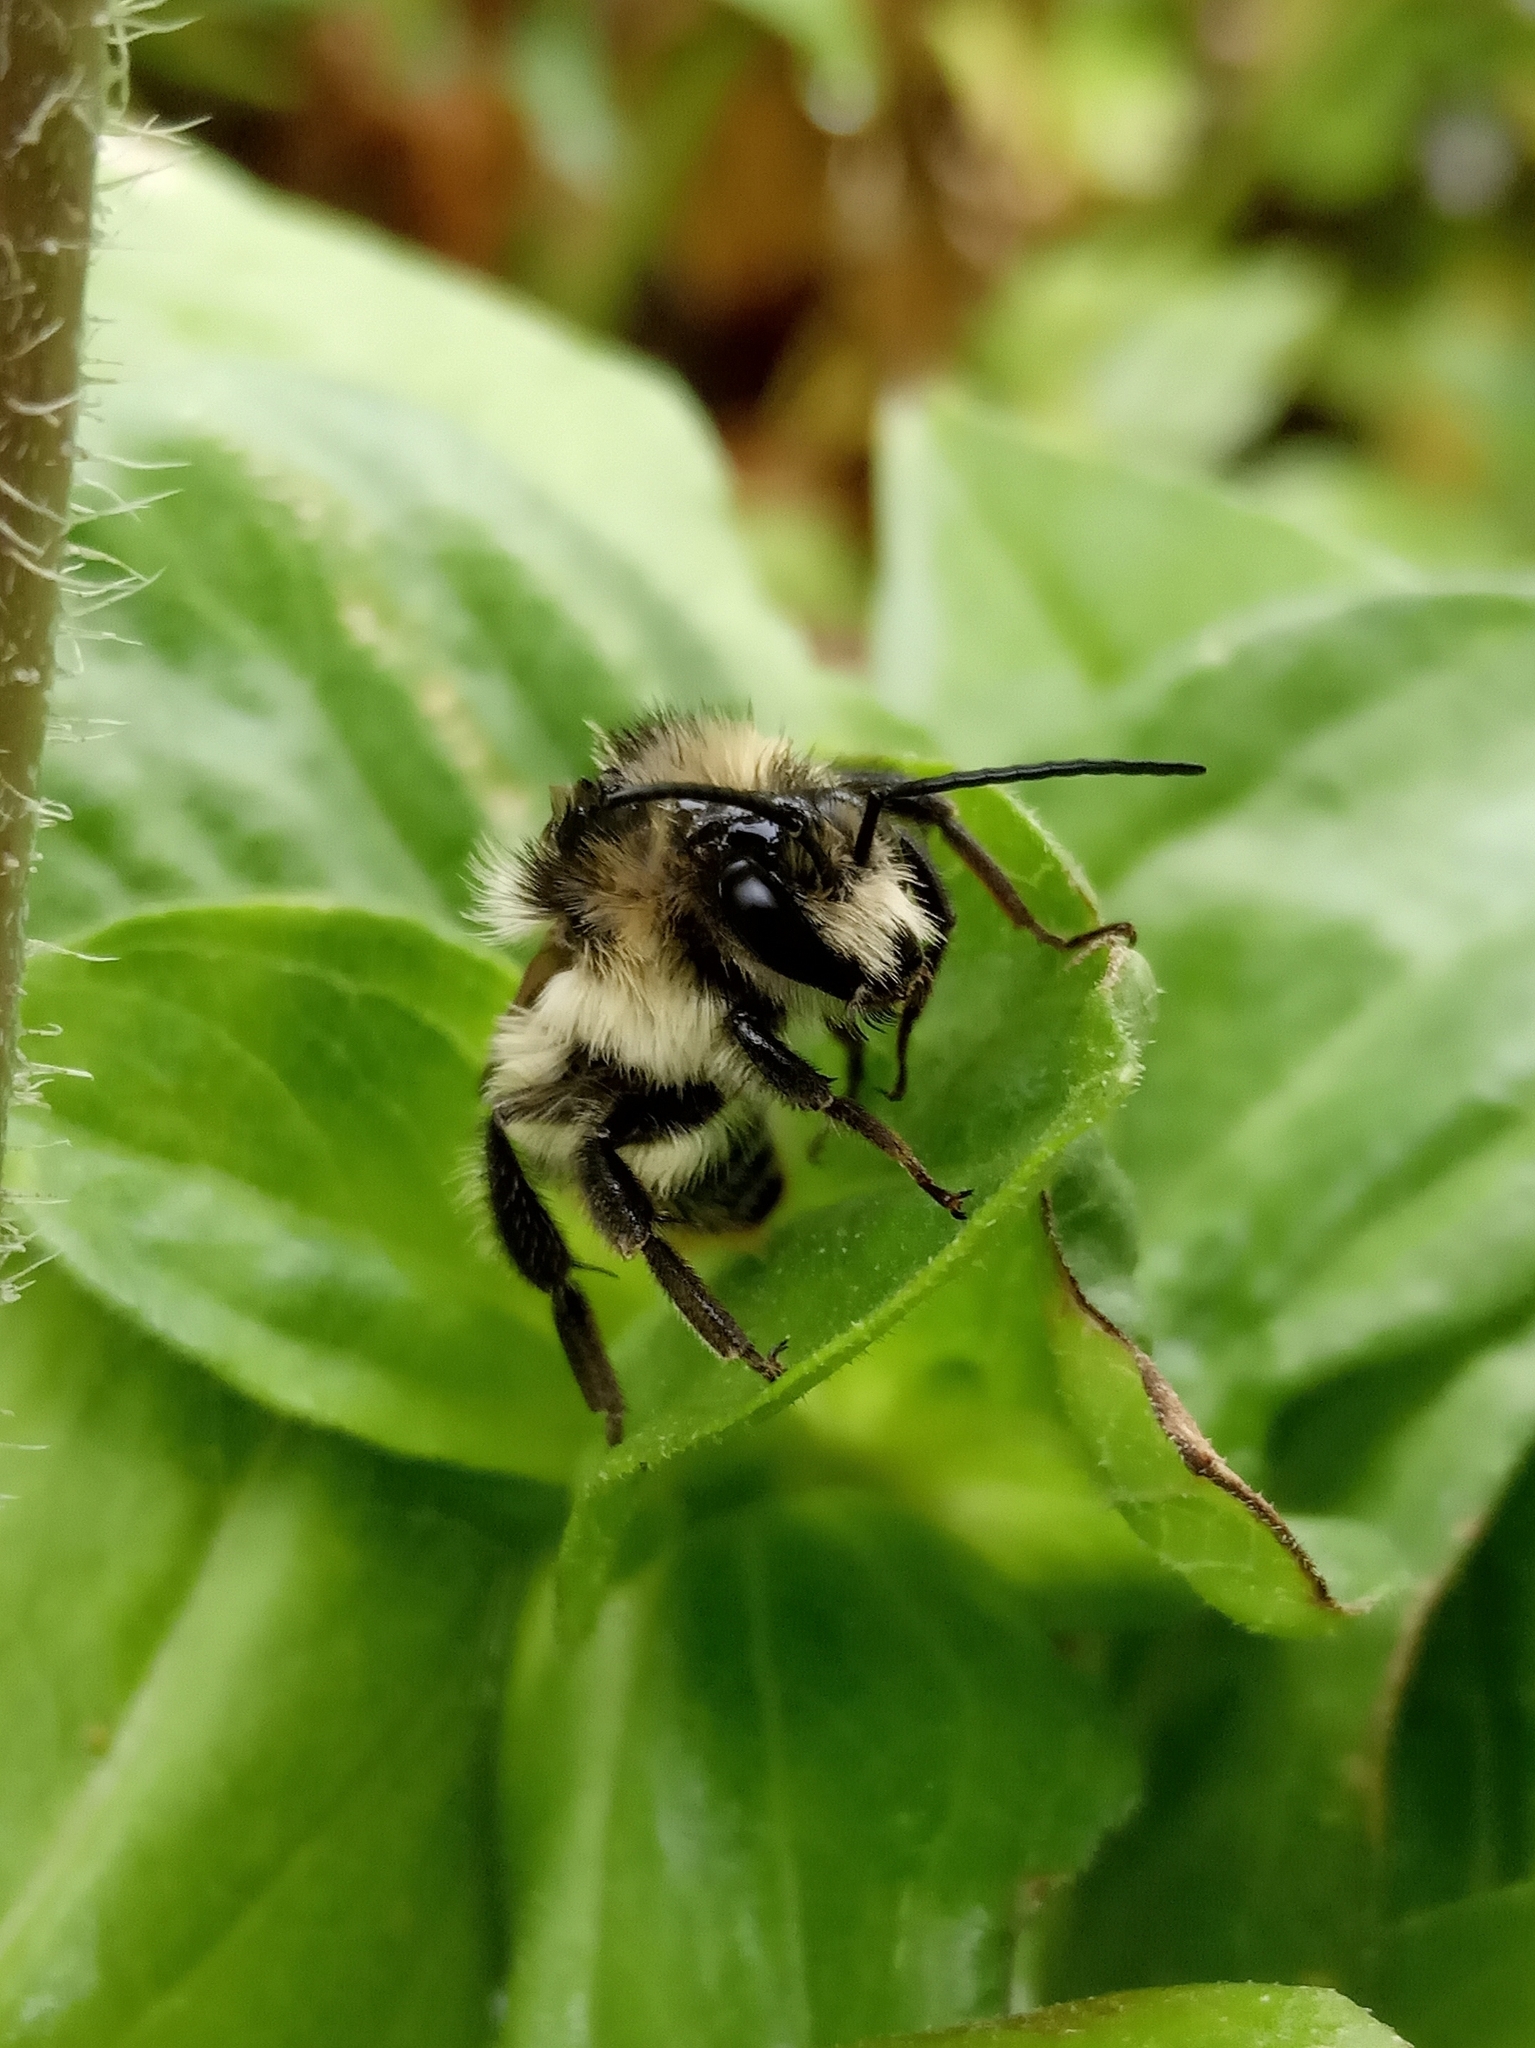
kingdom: Animalia
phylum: Arthropoda
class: Insecta
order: Hymenoptera
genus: Thoracobombus
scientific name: Thoracobombus
